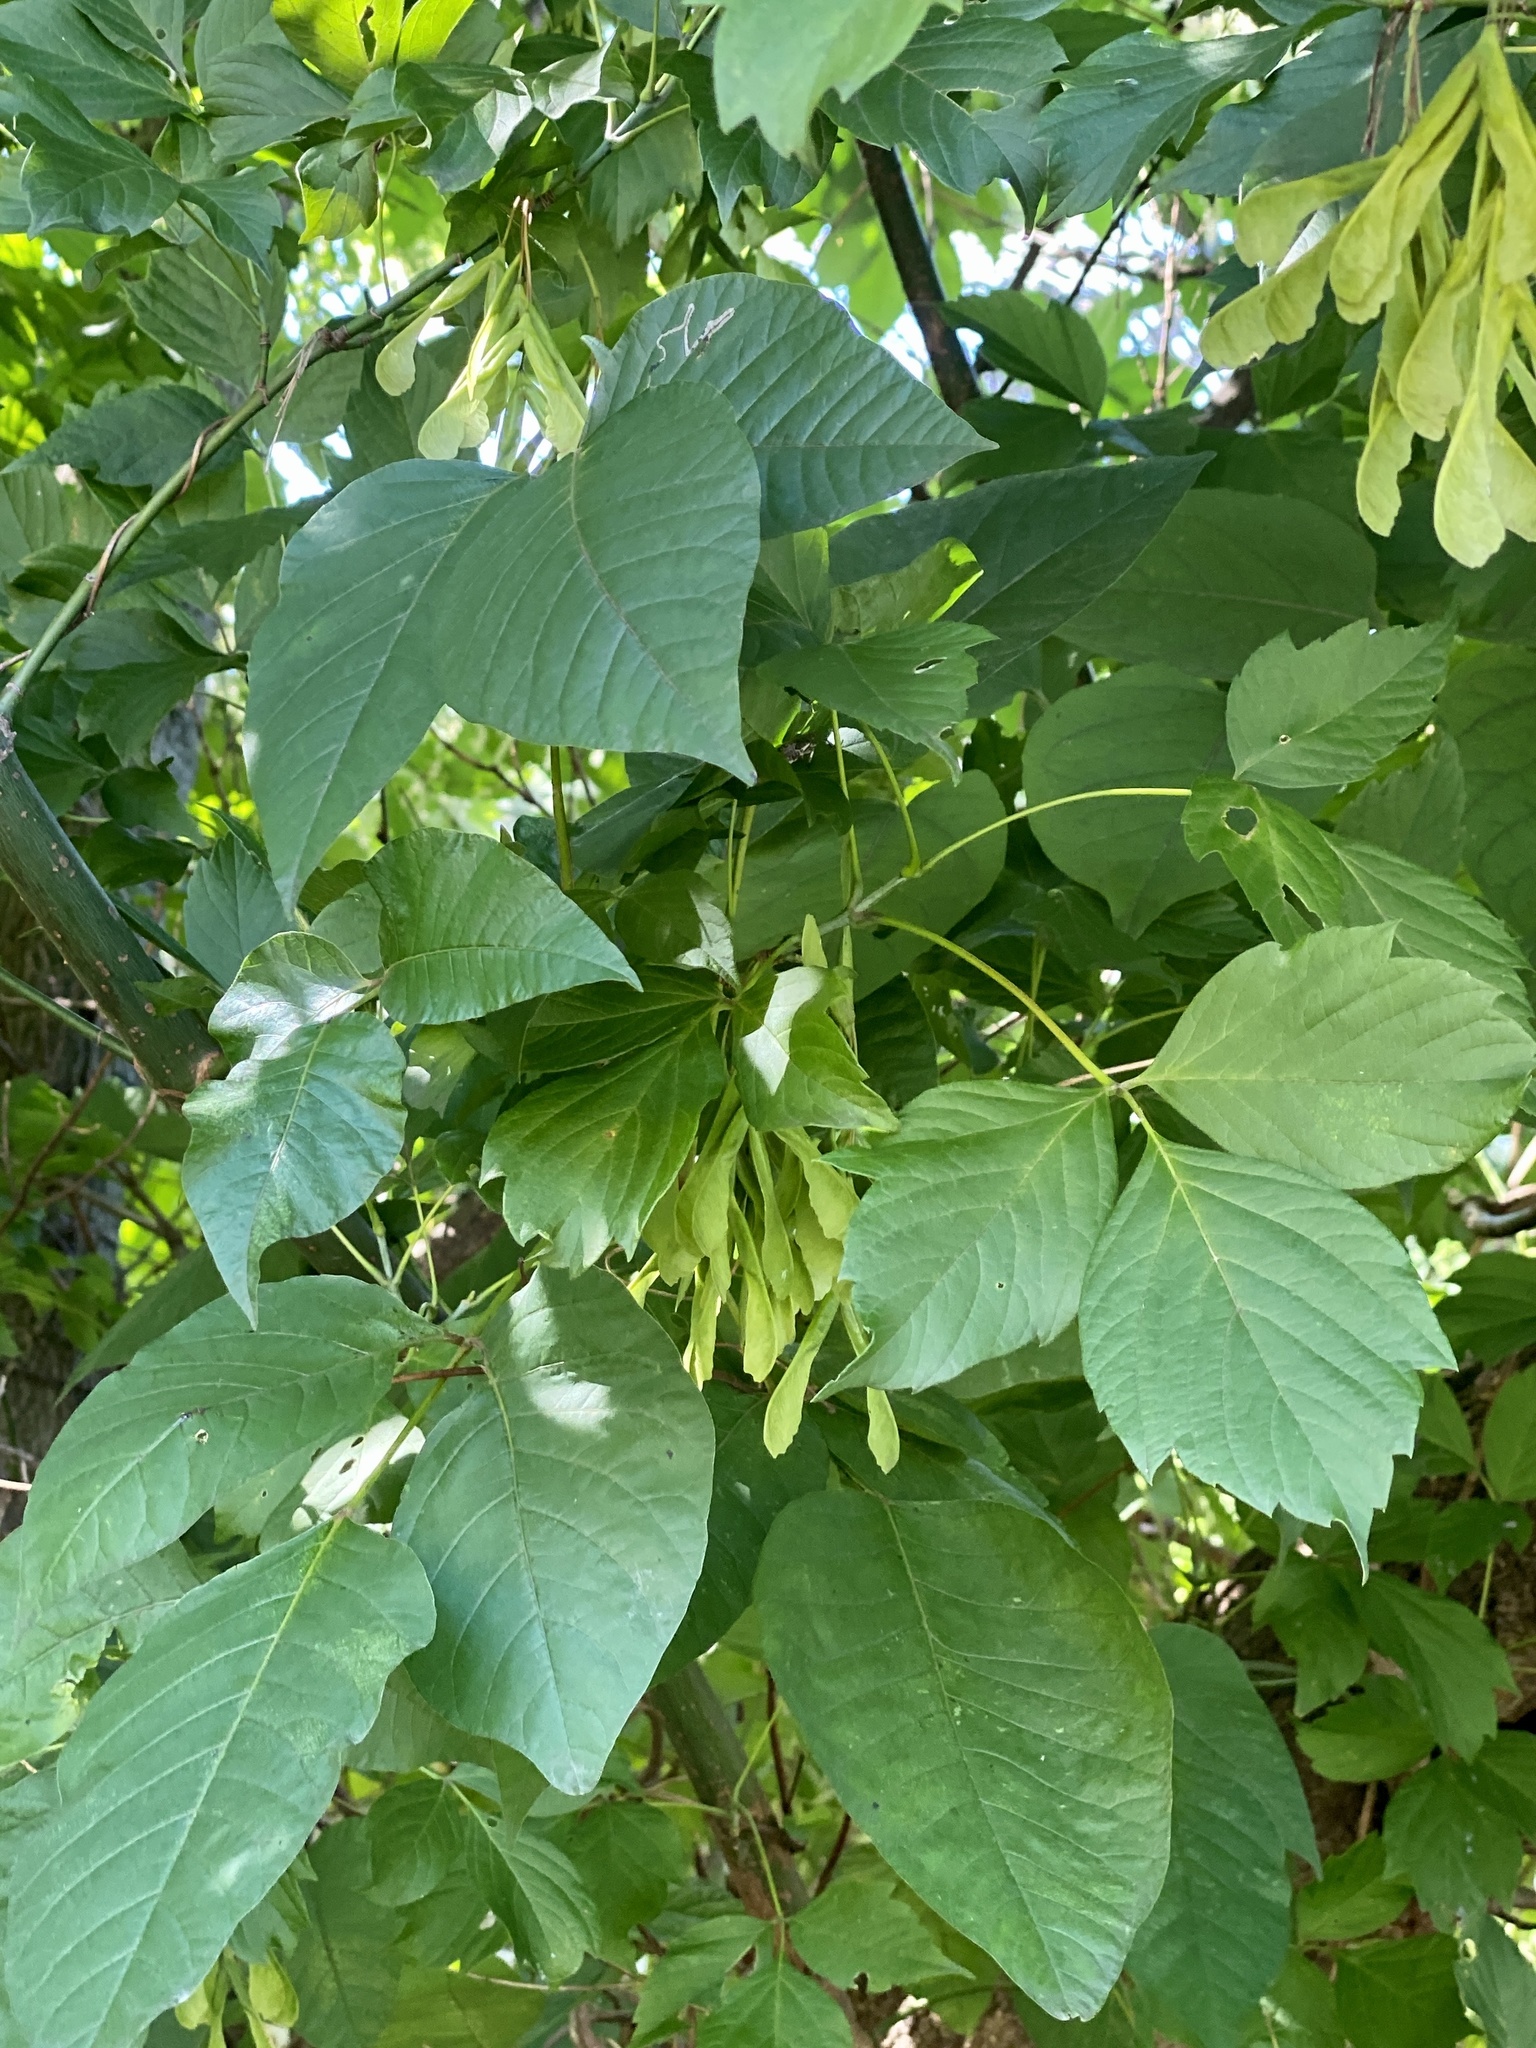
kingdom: Plantae
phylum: Tracheophyta
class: Magnoliopsida
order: Sapindales
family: Sapindaceae
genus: Acer
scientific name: Acer negundo
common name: Ashleaf maple
